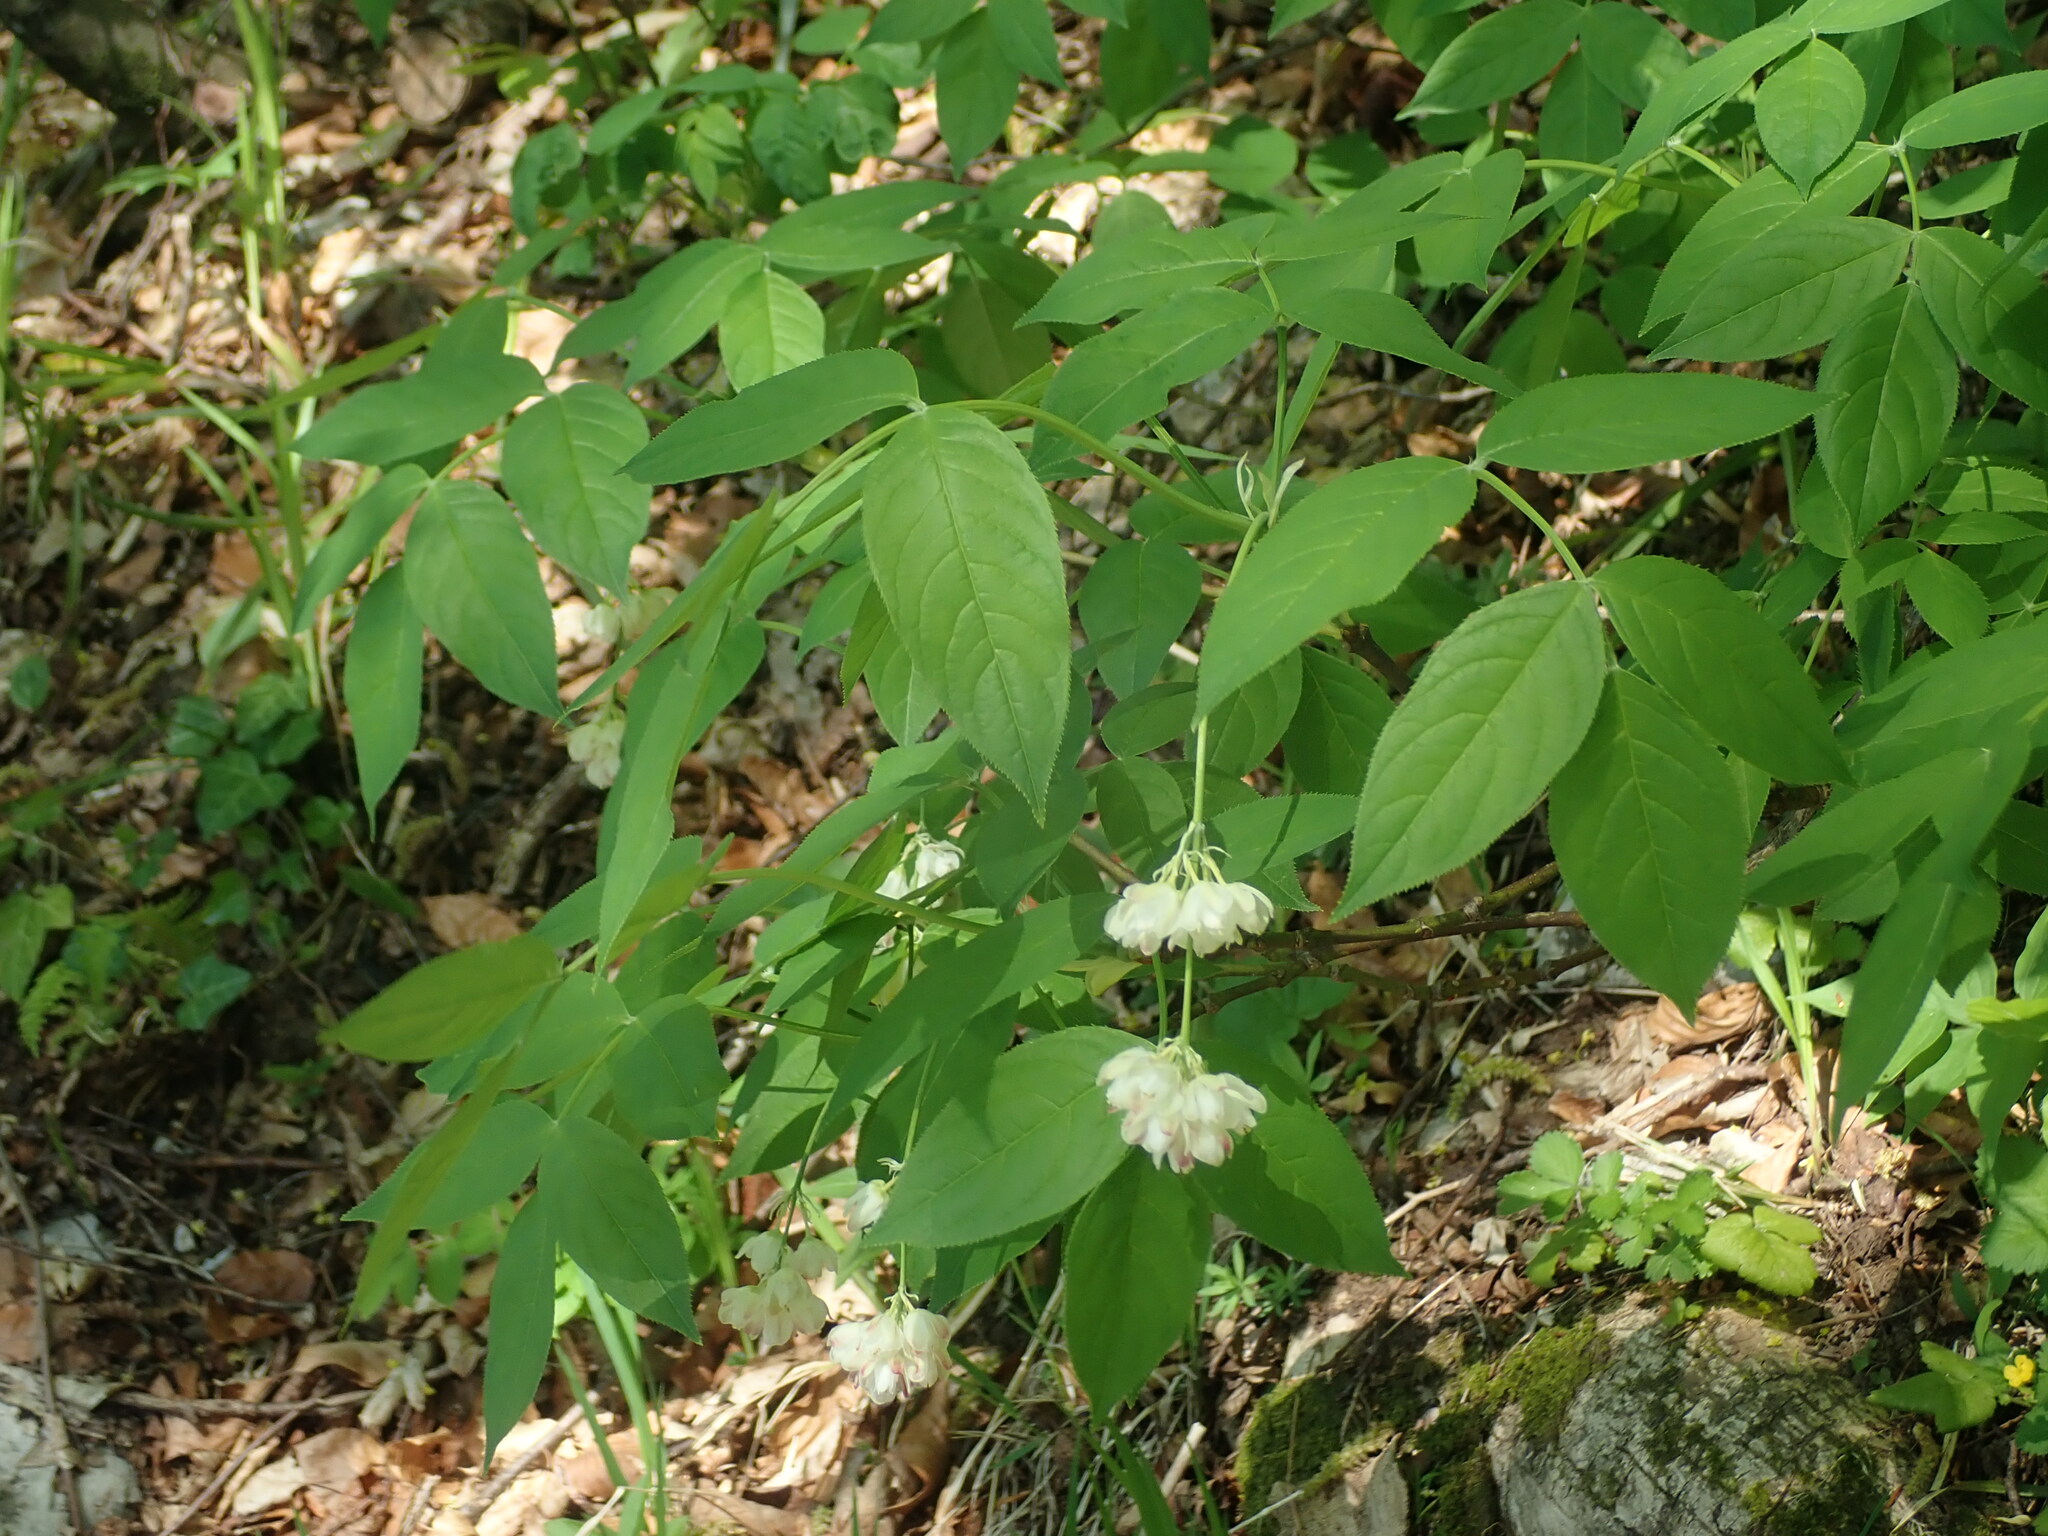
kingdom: Plantae
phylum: Tracheophyta
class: Magnoliopsida
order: Crossosomatales
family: Staphyleaceae
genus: Staphylea
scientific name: Staphylea pinnata
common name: Bladdernut
